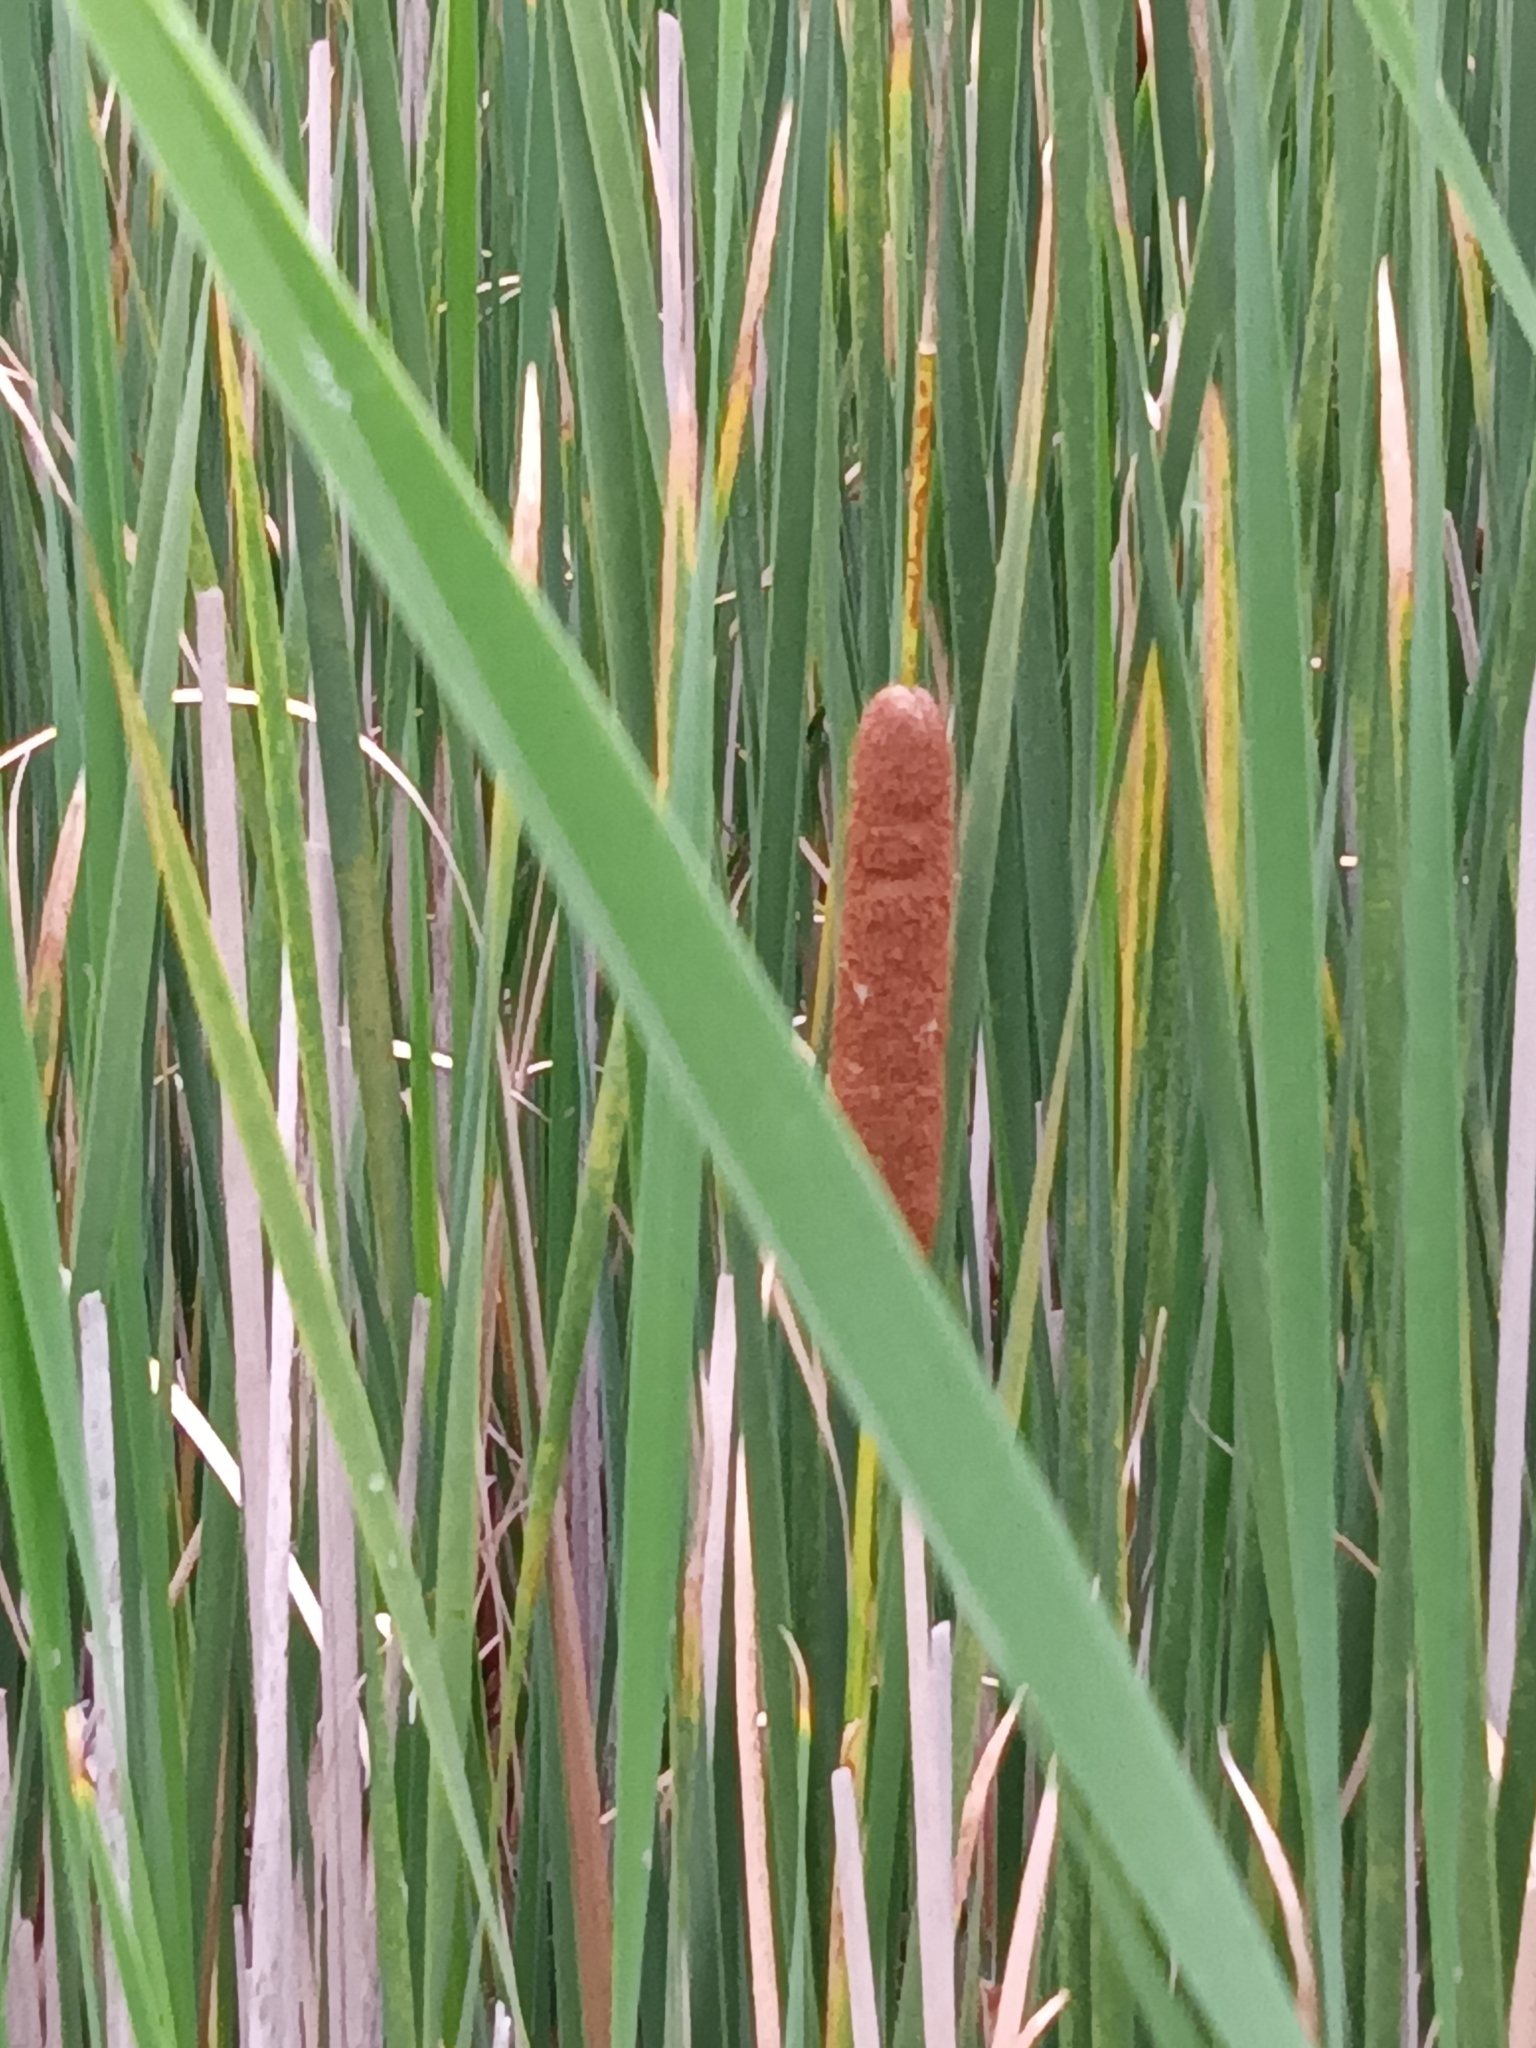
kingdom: Plantae
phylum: Tracheophyta
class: Liliopsida
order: Poales
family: Typhaceae
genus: Typha
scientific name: Typha angustifolia
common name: Lesser bulrush
